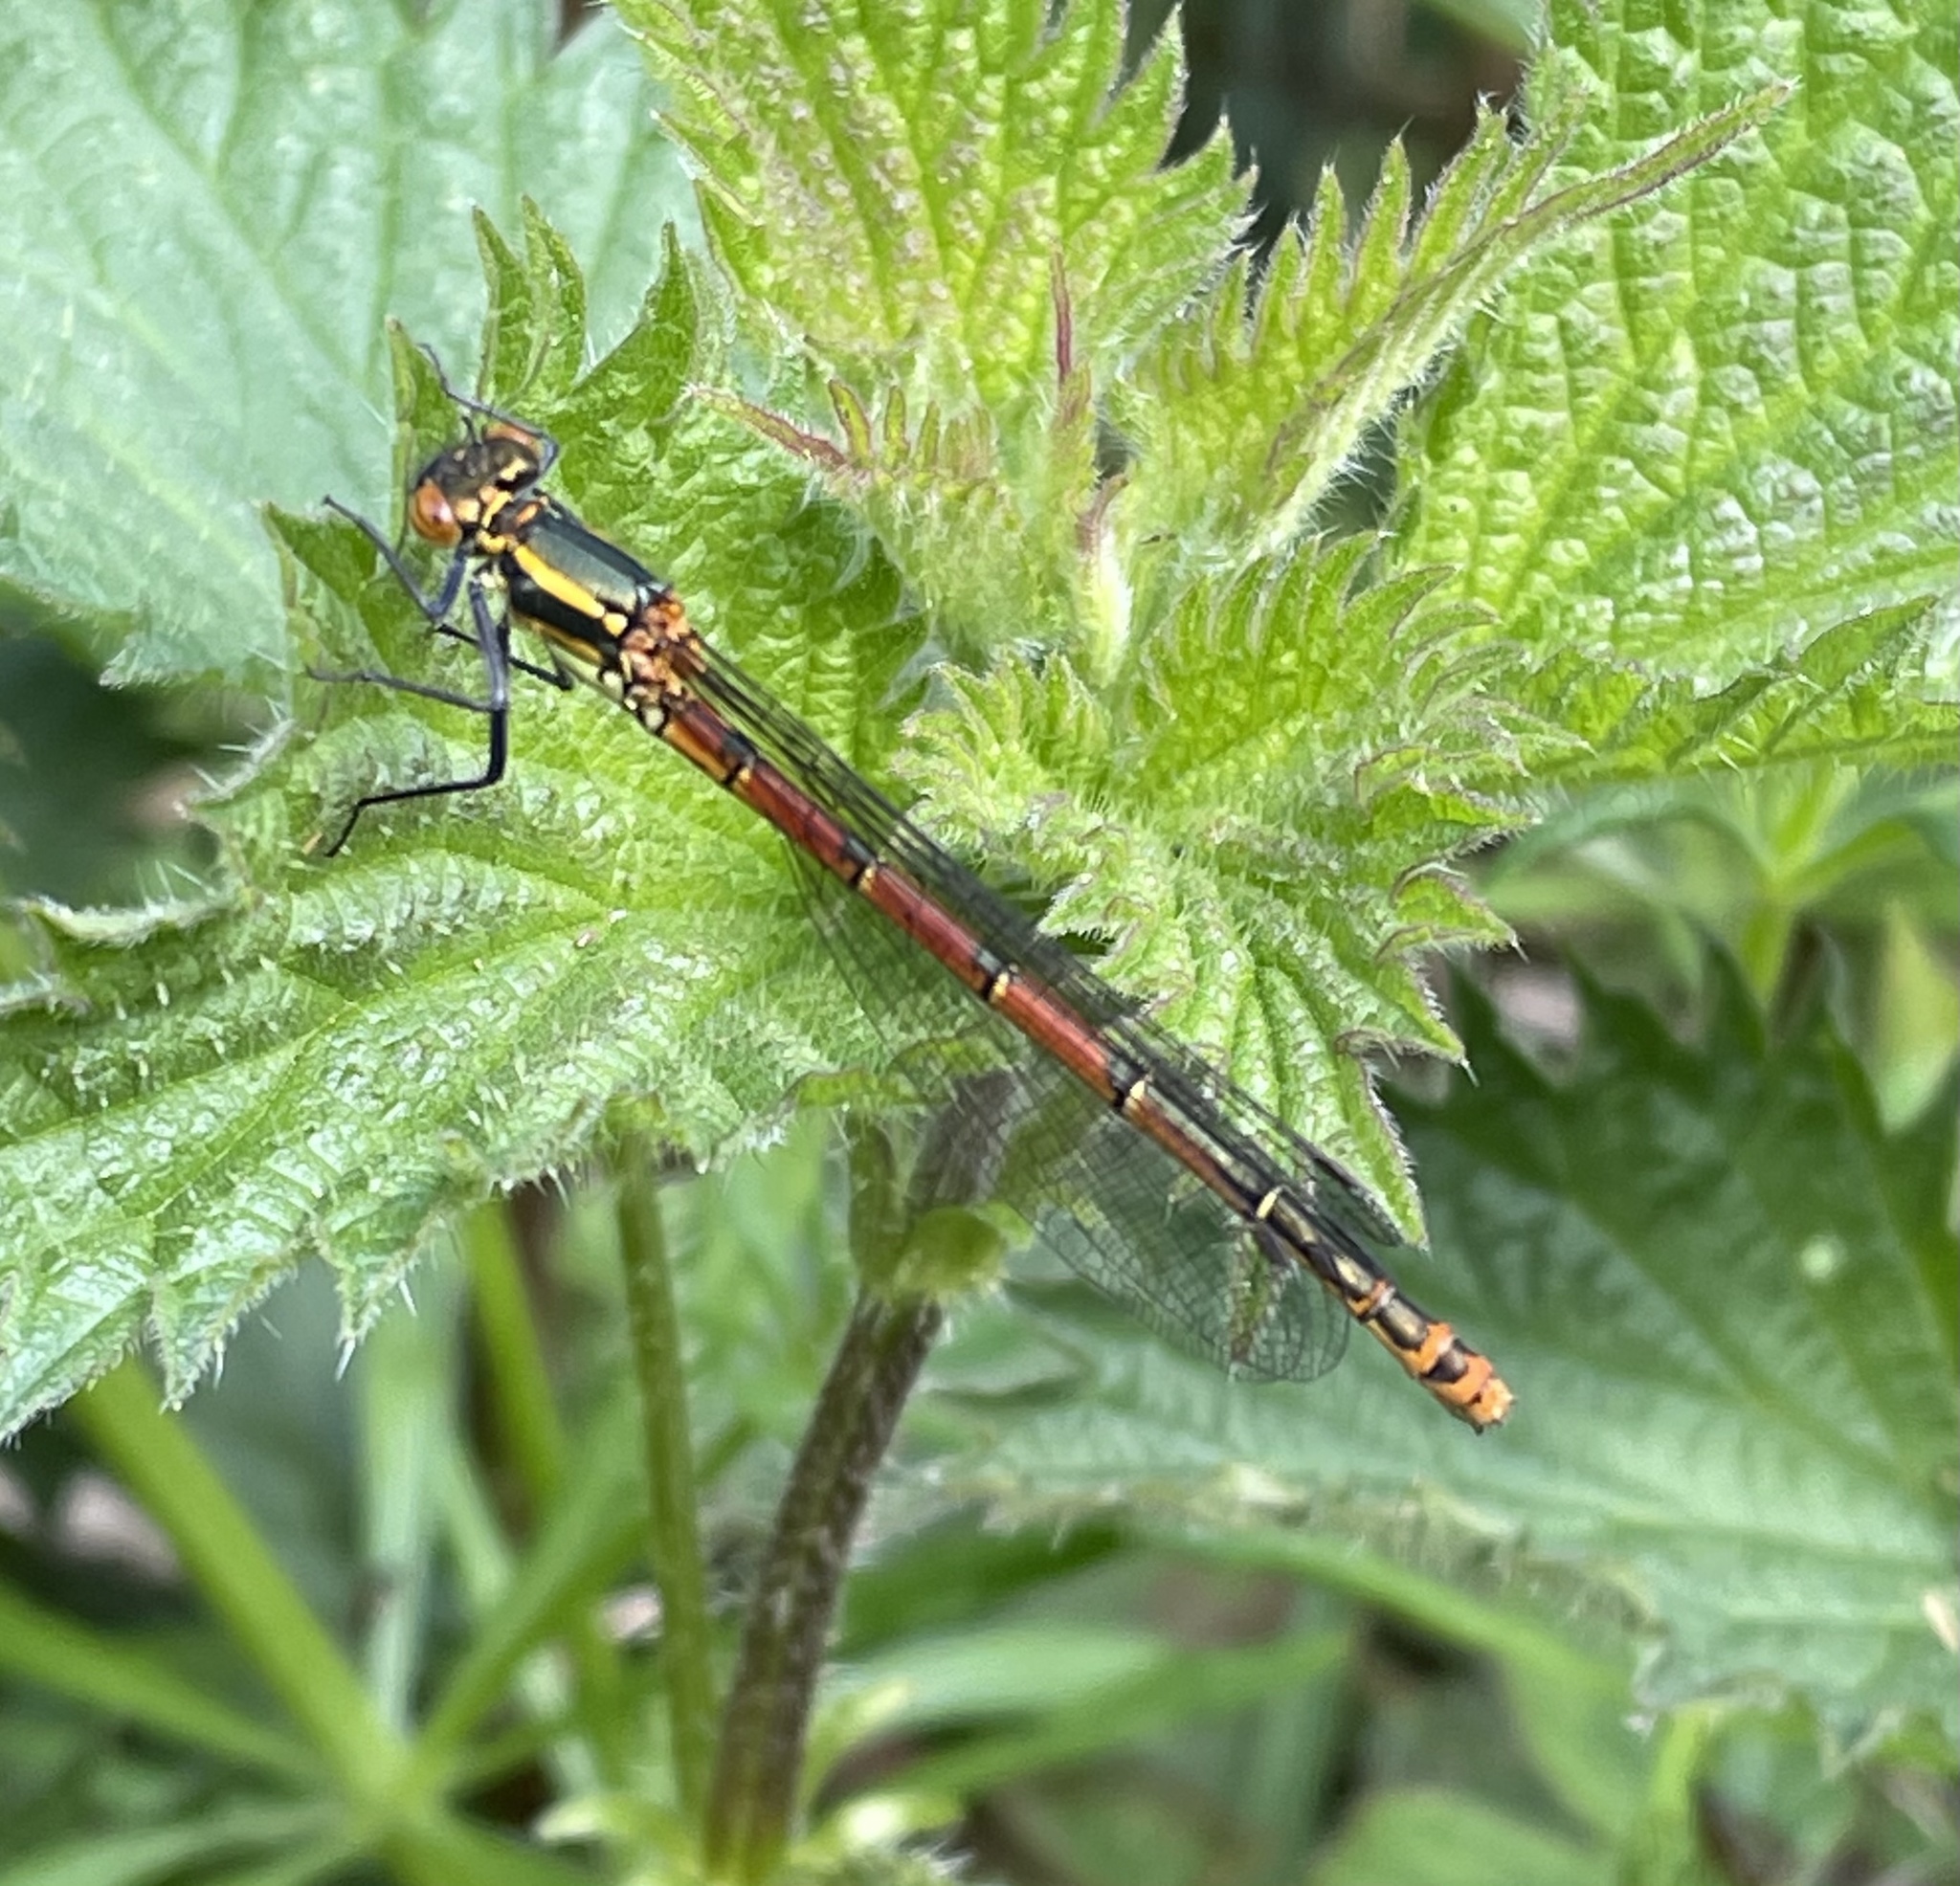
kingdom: Animalia
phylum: Arthropoda
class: Insecta
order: Odonata
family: Coenagrionidae
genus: Pyrrhosoma
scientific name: Pyrrhosoma nymphula
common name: Large red damsel
